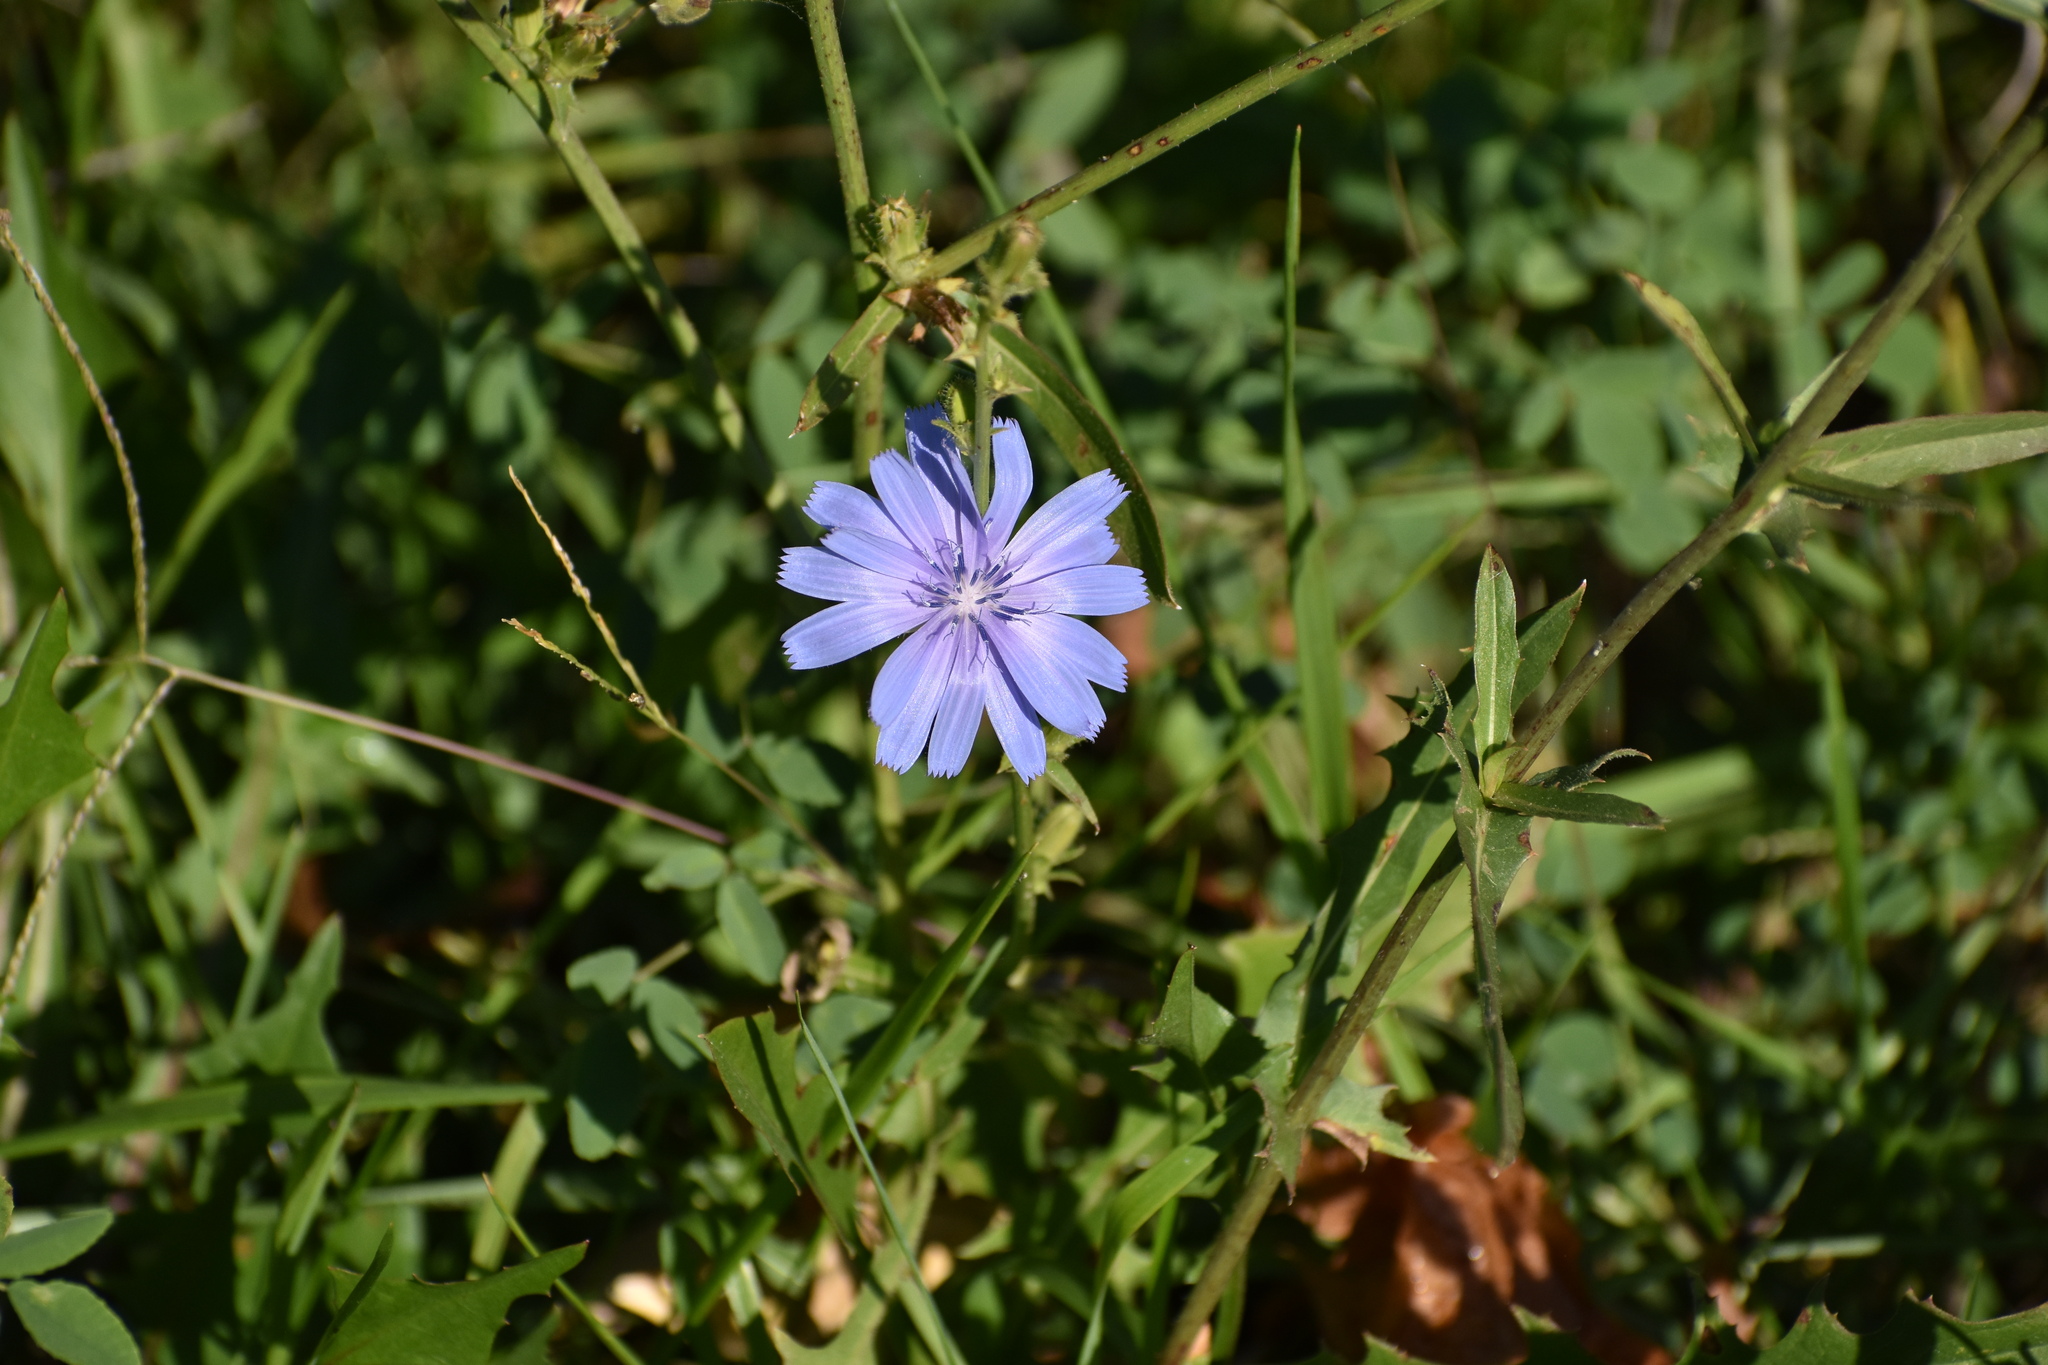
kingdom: Plantae
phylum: Tracheophyta
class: Magnoliopsida
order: Asterales
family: Asteraceae
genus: Cichorium
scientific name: Cichorium intybus
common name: Chicory
